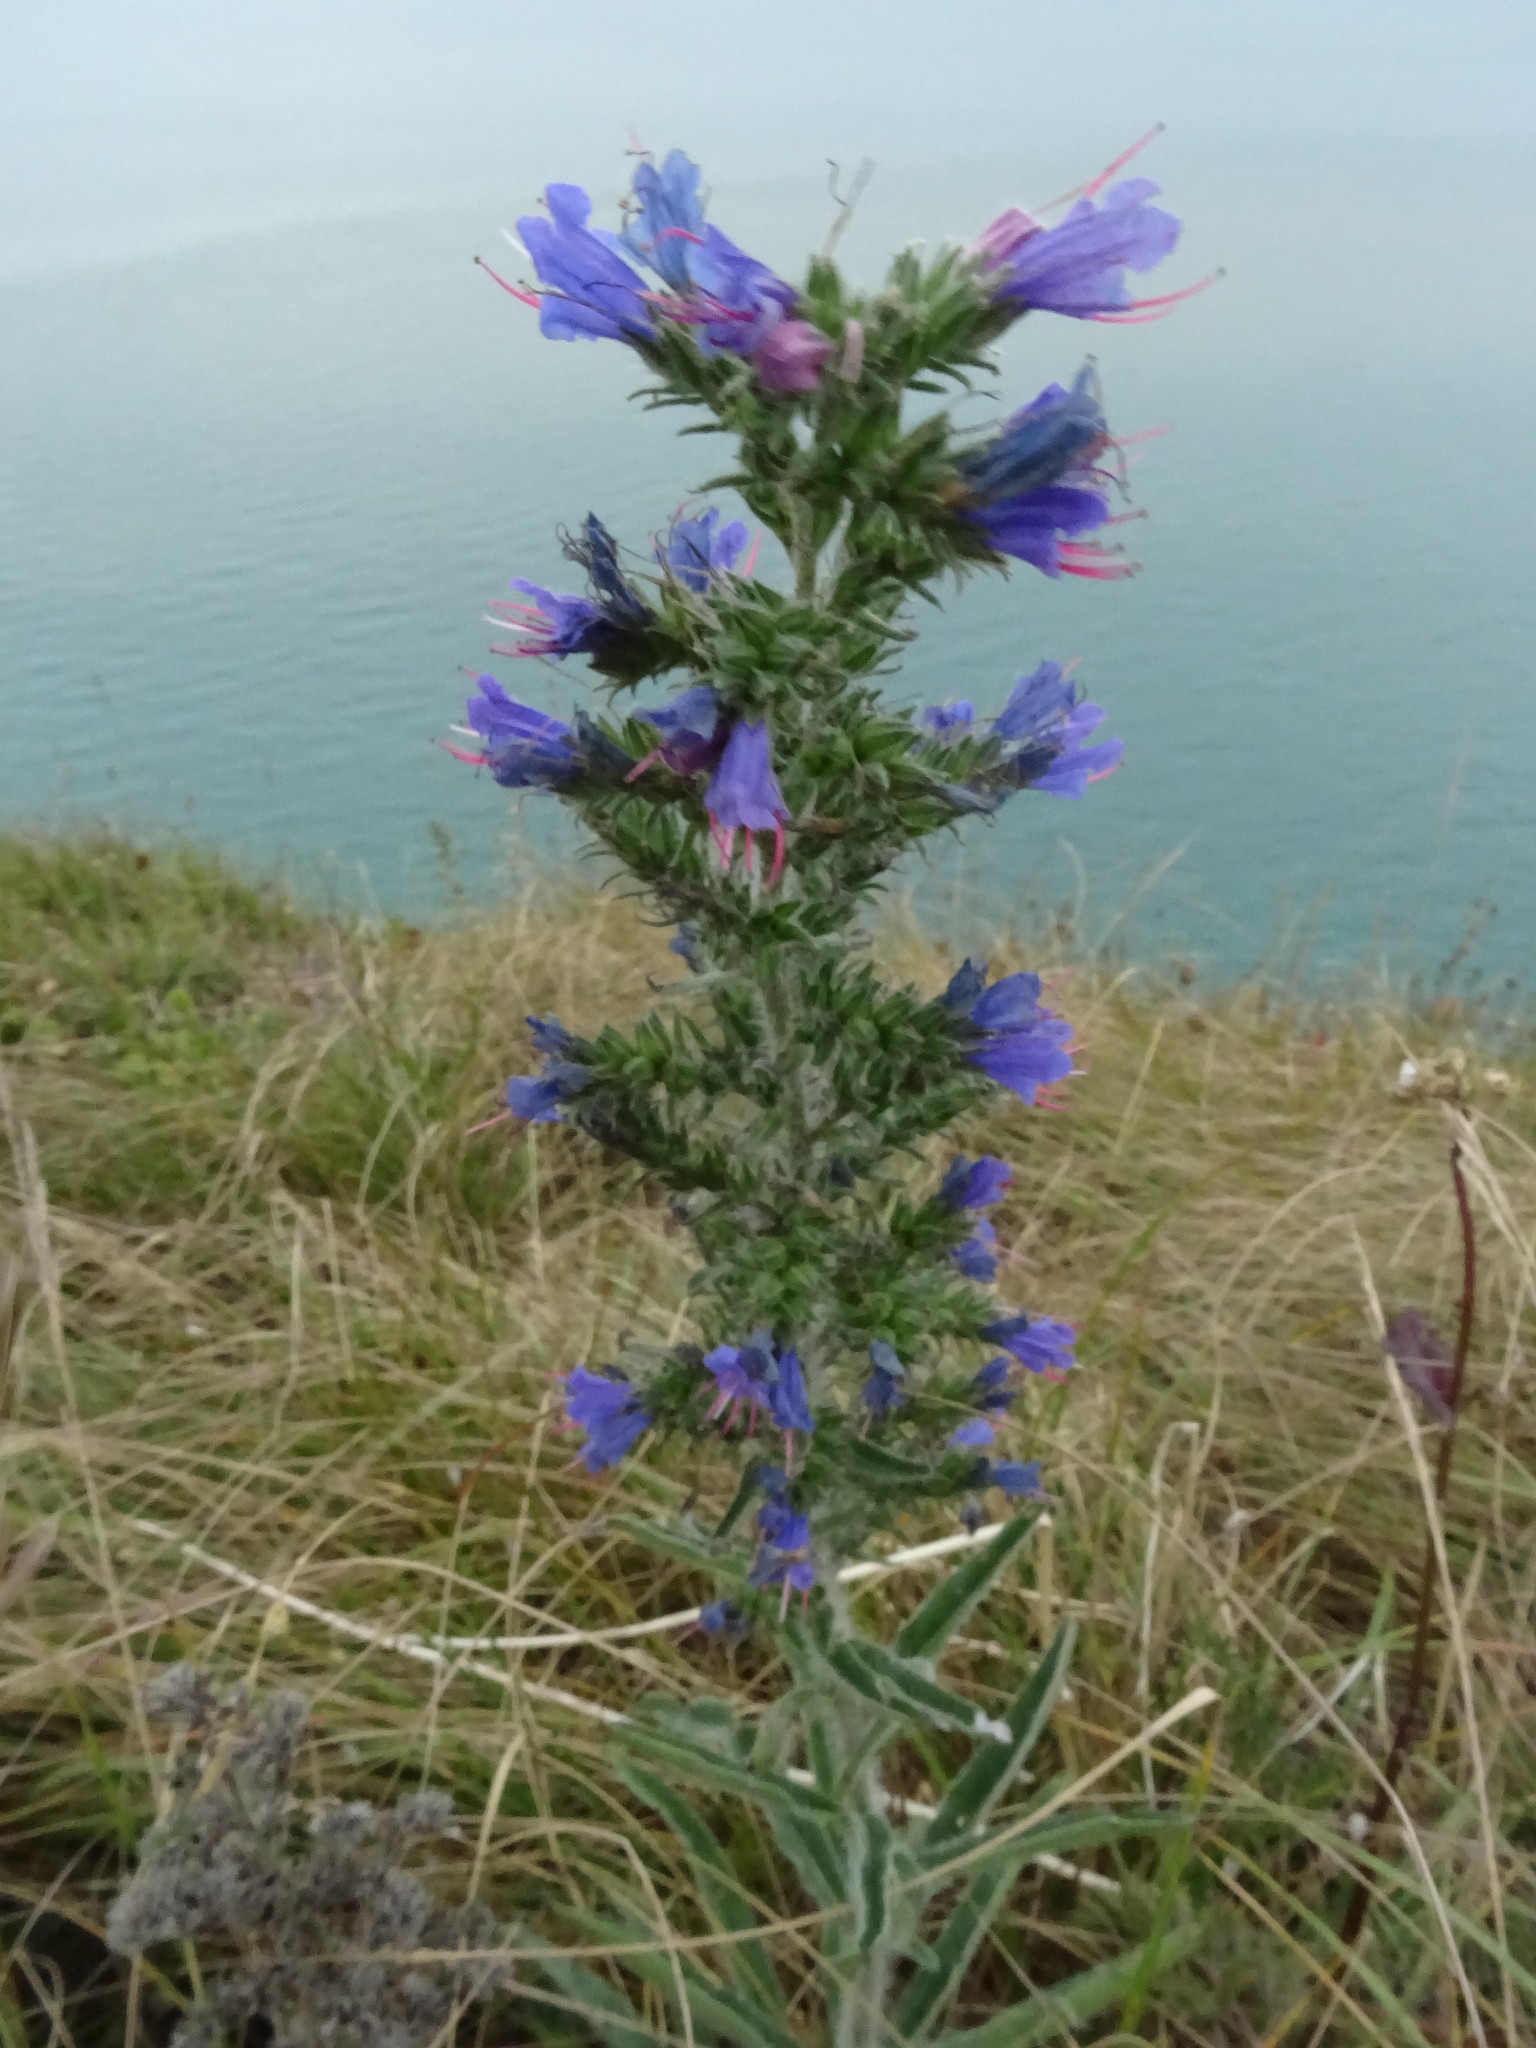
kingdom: Plantae
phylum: Tracheophyta
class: Magnoliopsida
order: Boraginales
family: Boraginaceae
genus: Echium
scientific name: Echium vulgare
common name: Common viper's bugloss
